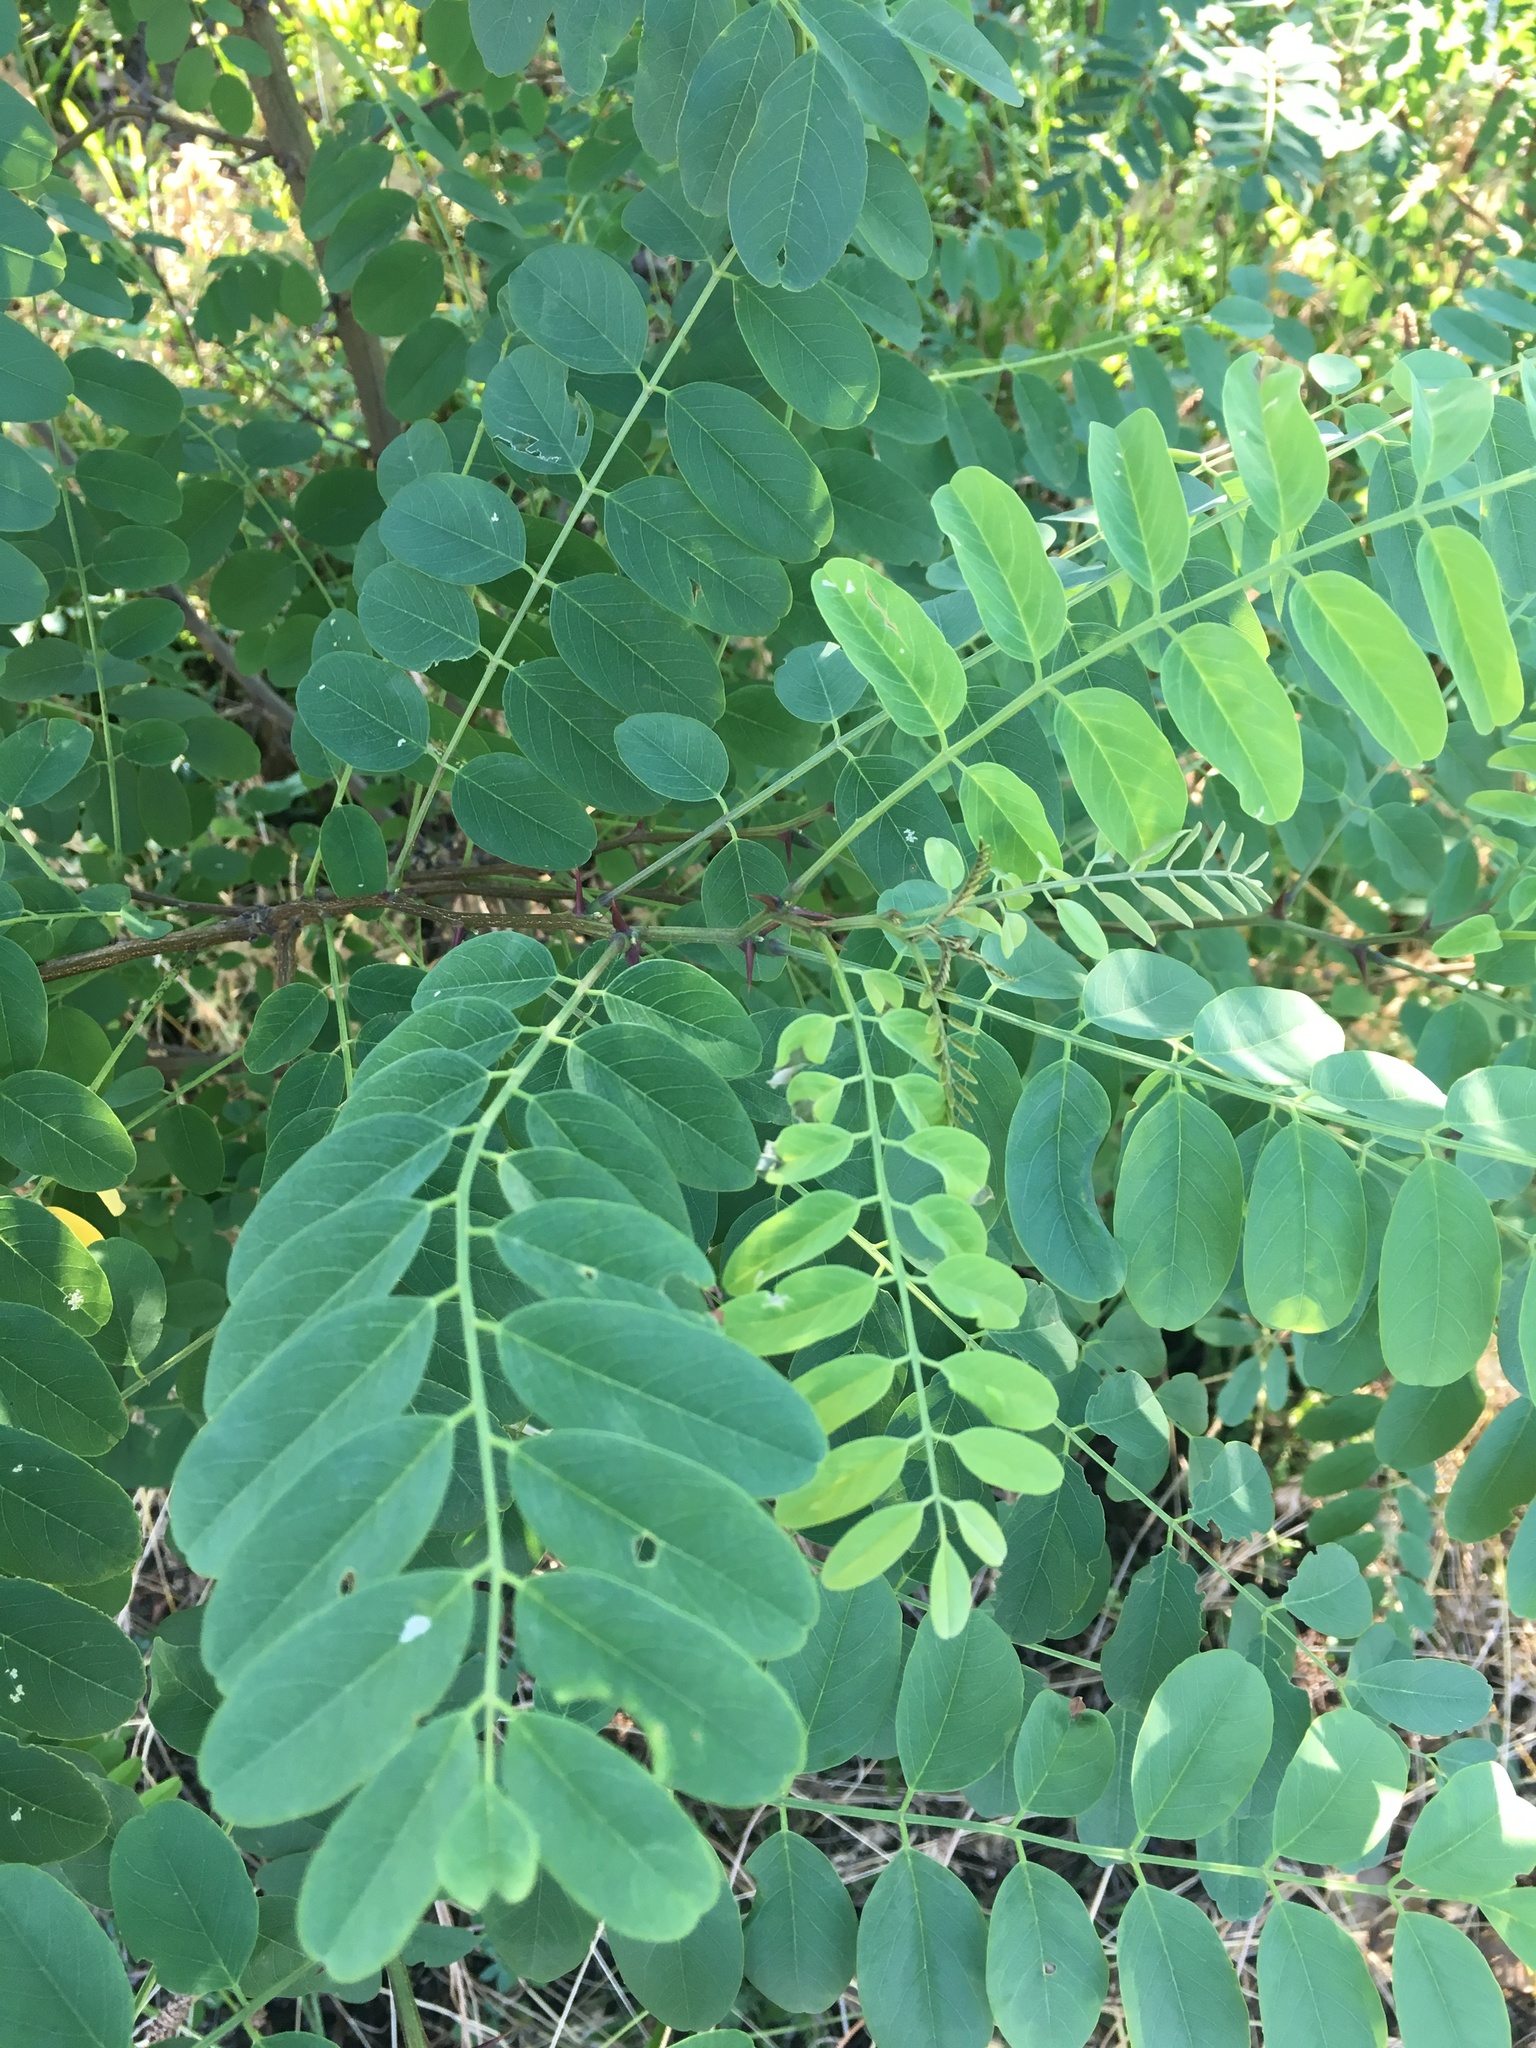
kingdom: Plantae
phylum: Tracheophyta
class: Magnoliopsida
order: Fabales
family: Fabaceae
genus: Robinia
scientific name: Robinia pseudoacacia
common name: Black locust
